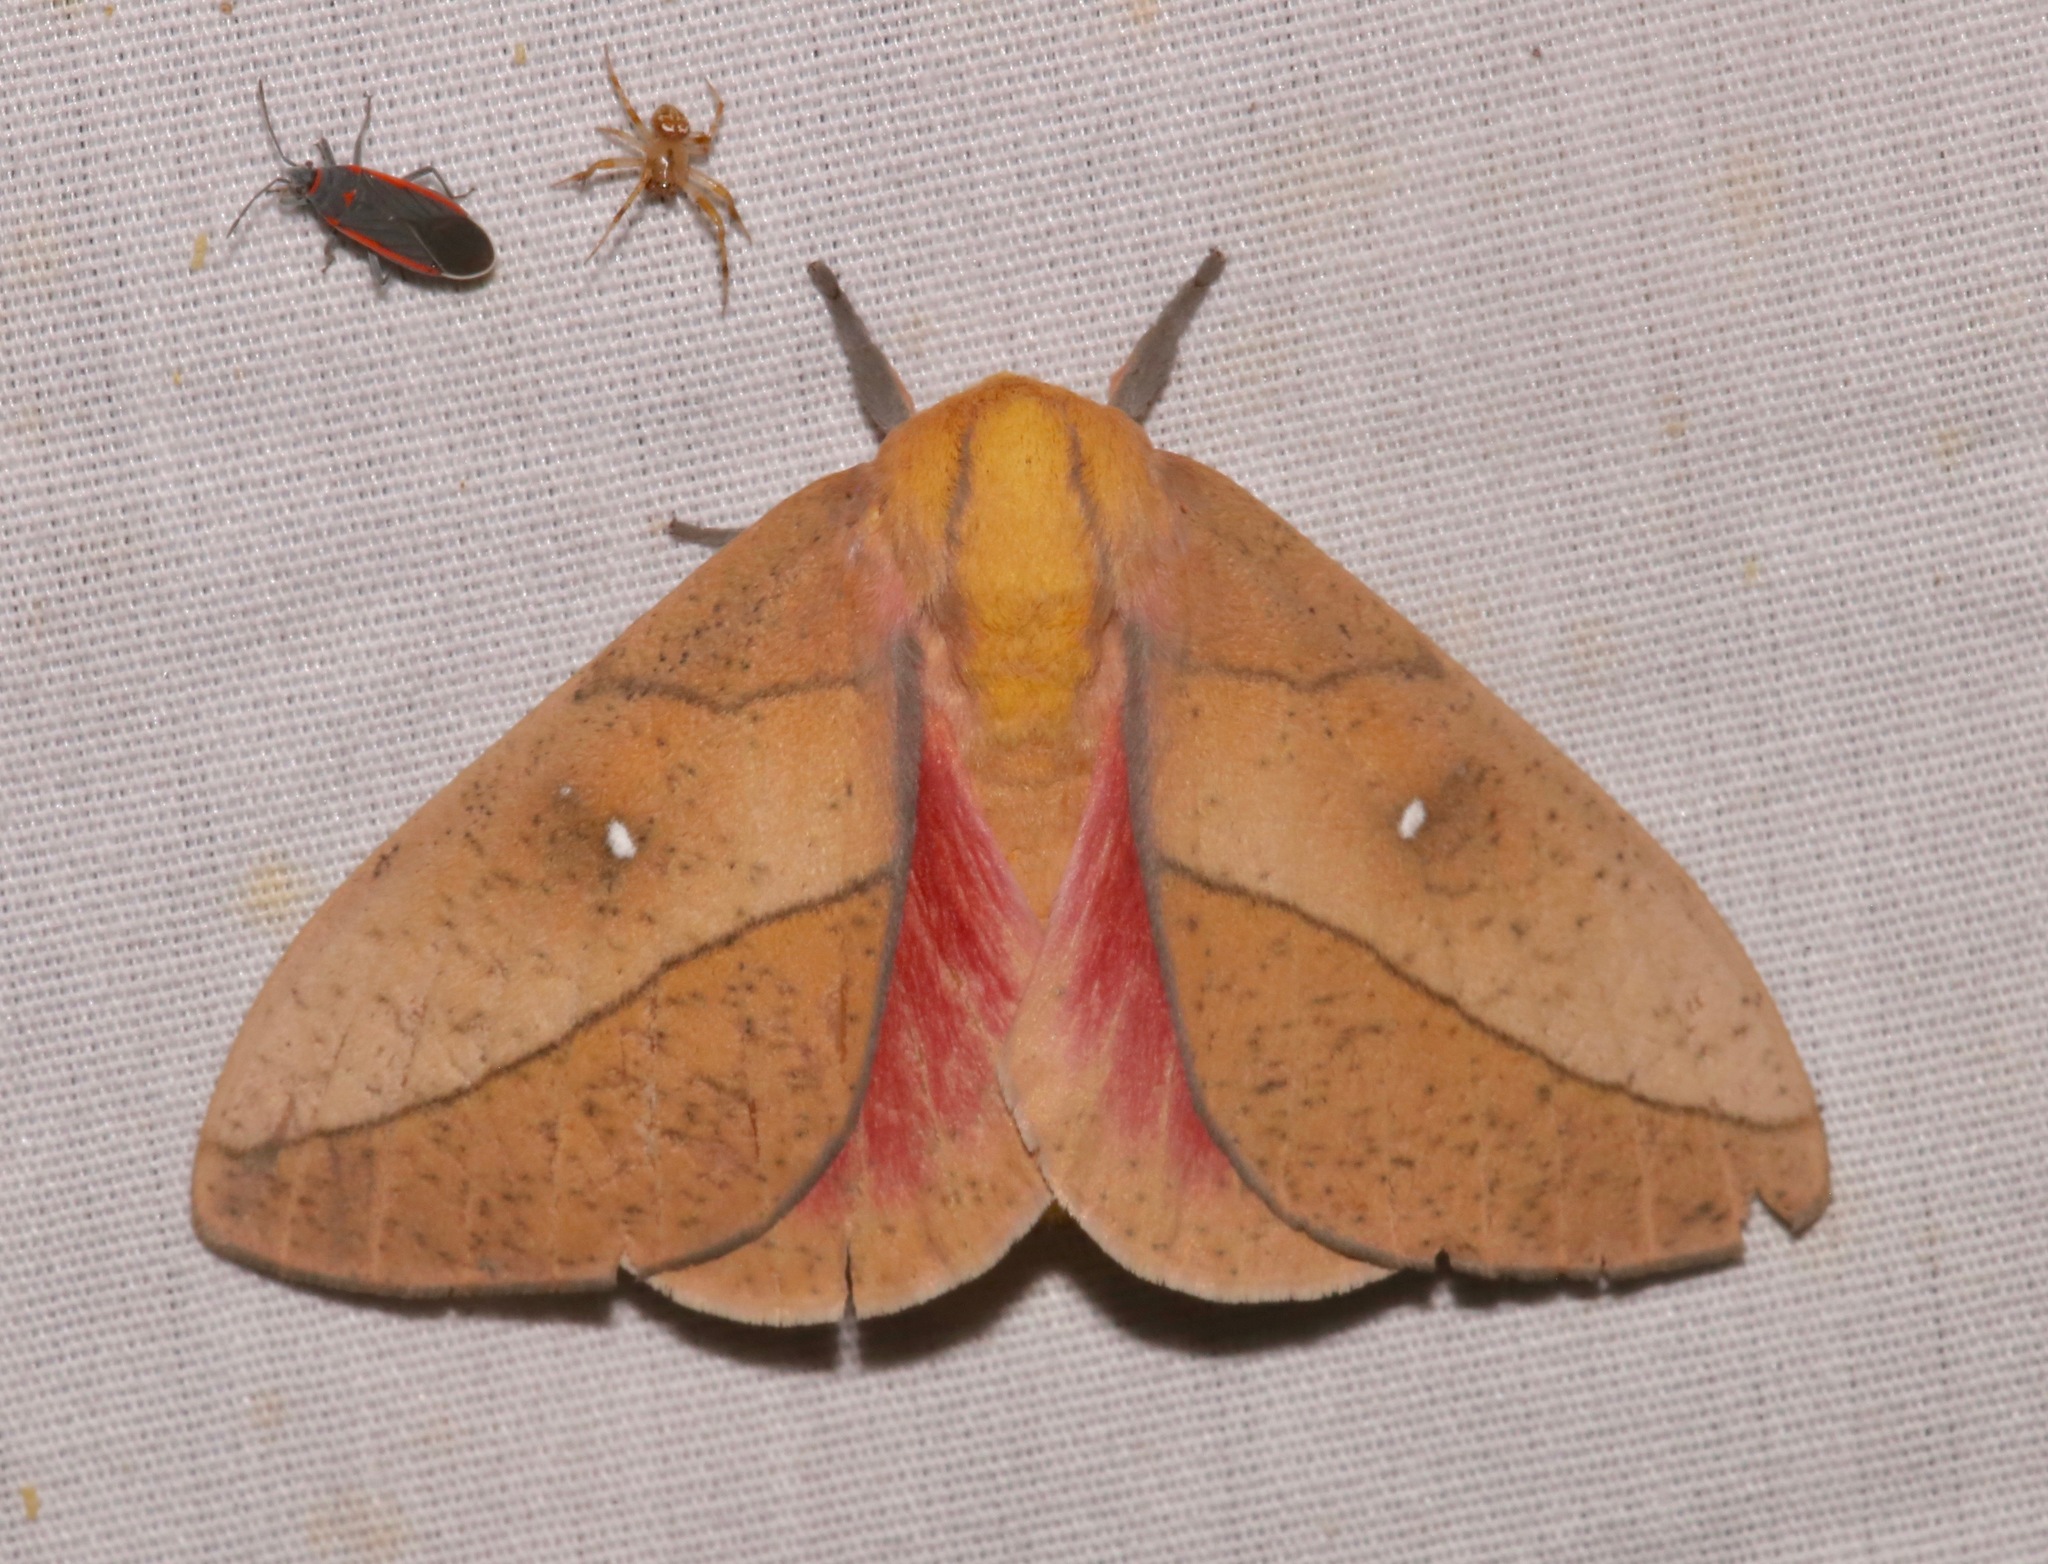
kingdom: Animalia
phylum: Arthropoda
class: Insecta
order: Lepidoptera
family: Saturniidae
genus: Syssphinx
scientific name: Syssphinx montana
